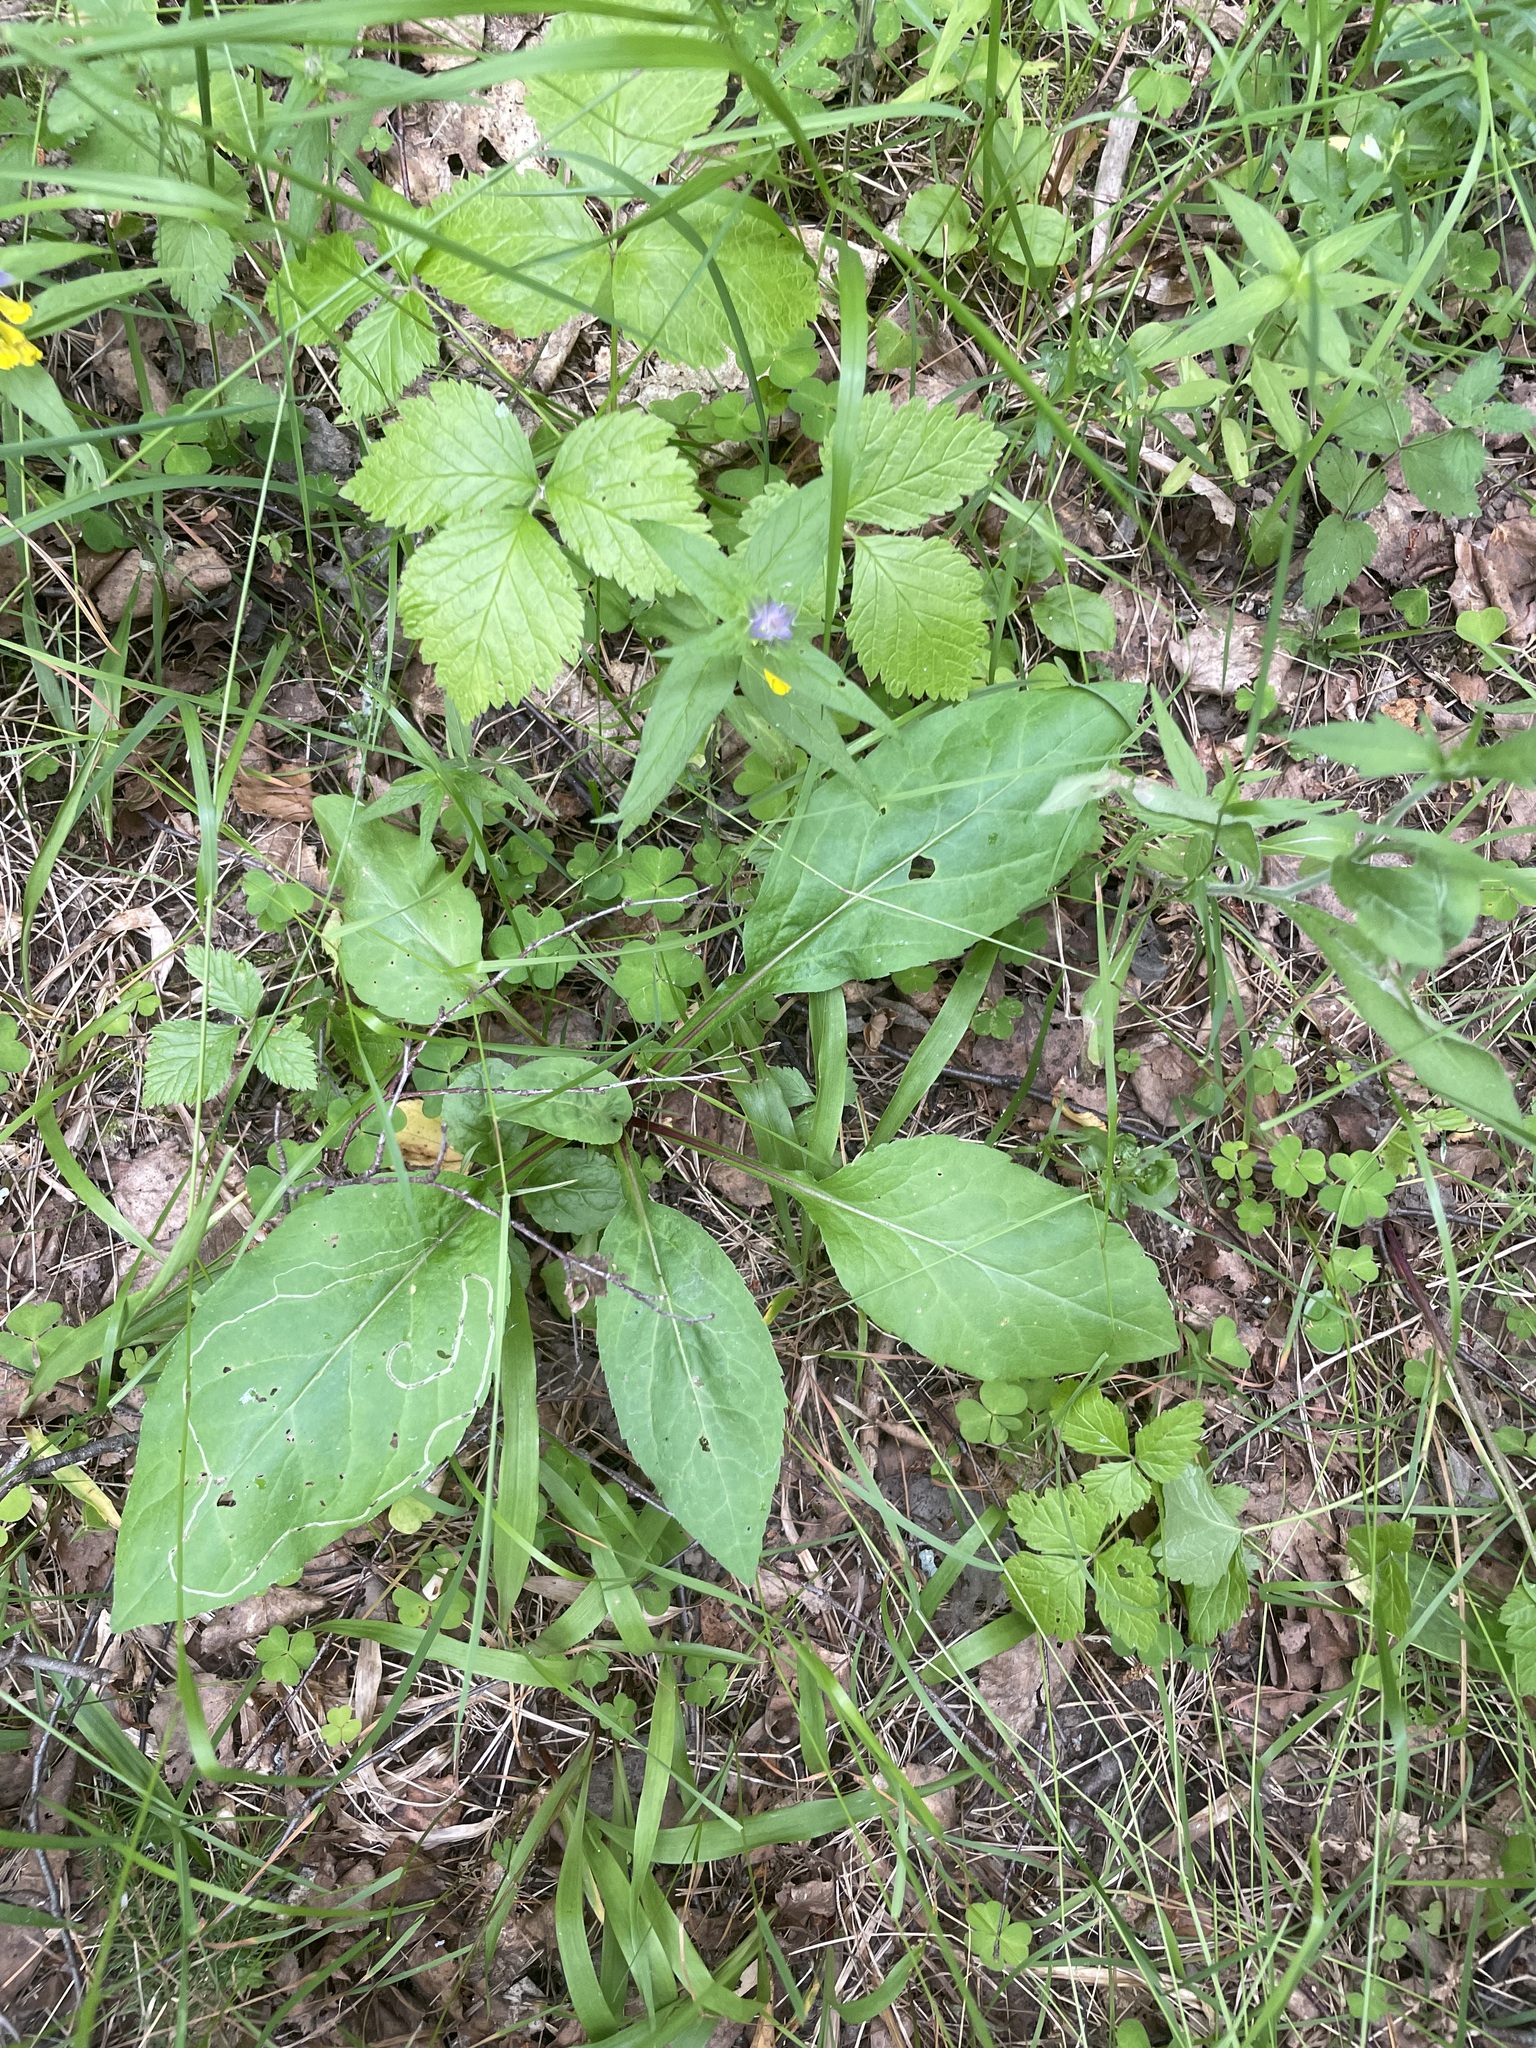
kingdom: Plantae
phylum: Tracheophyta
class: Magnoliopsida
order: Asterales
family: Asteraceae
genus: Solidago
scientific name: Solidago virgaurea
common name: Goldenrod
